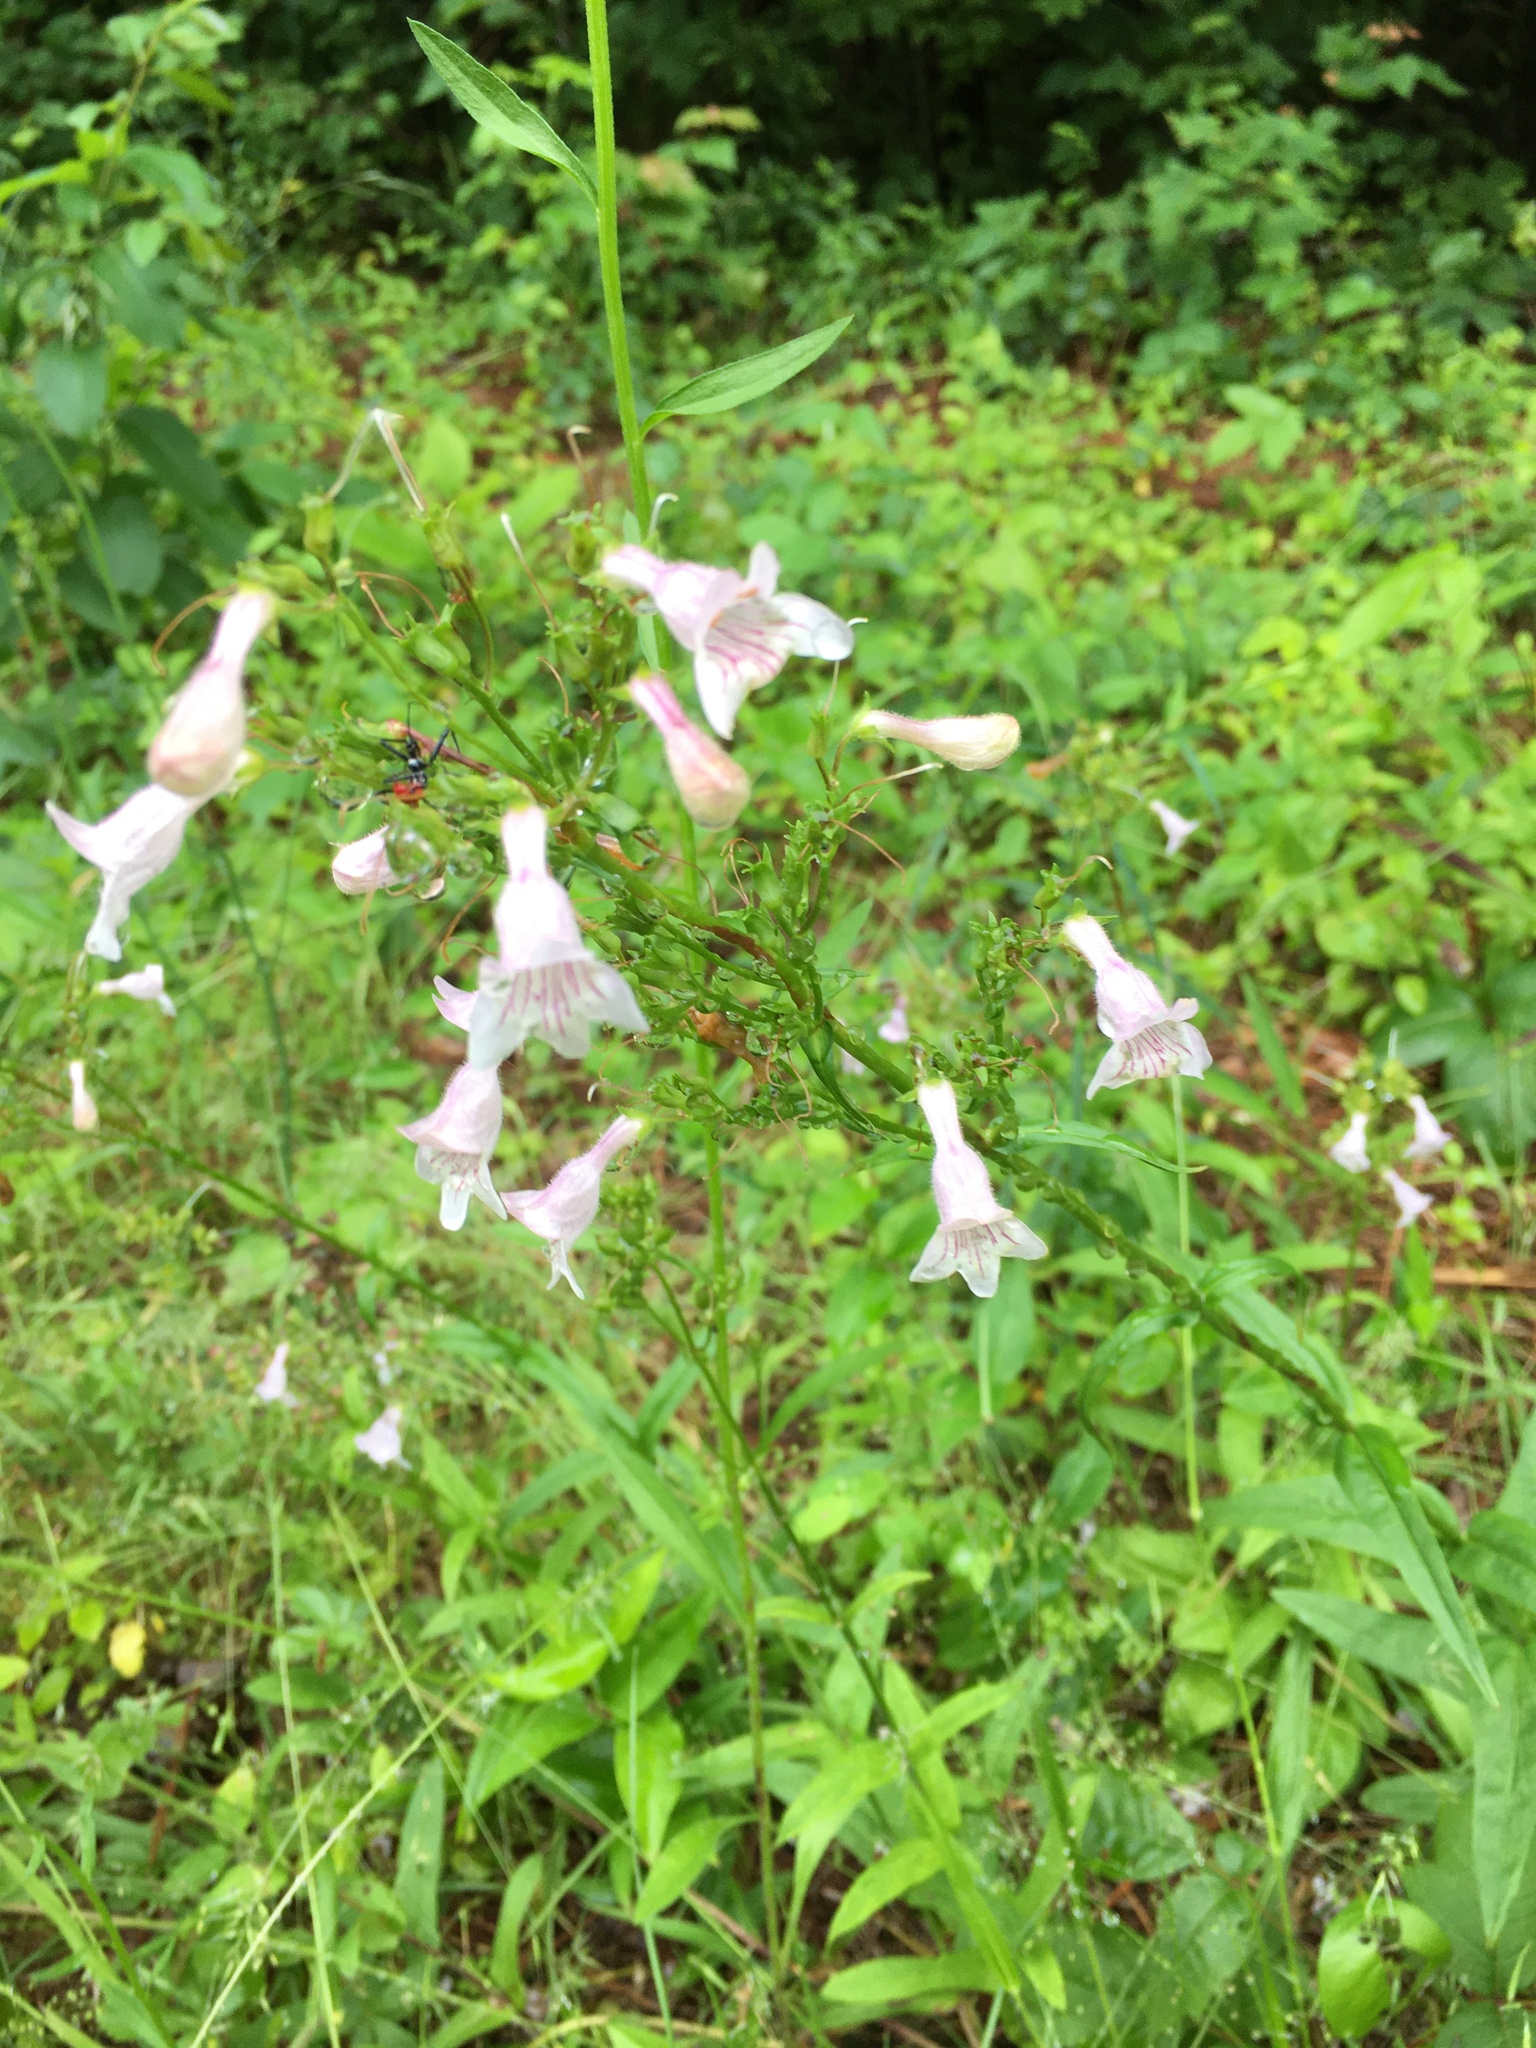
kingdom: Plantae
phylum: Tracheophyta
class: Magnoliopsida
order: Lamiales
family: Plantaginaceae
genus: Penstemon
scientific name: Penstemon laevigatus
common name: Eastern beardtongue
